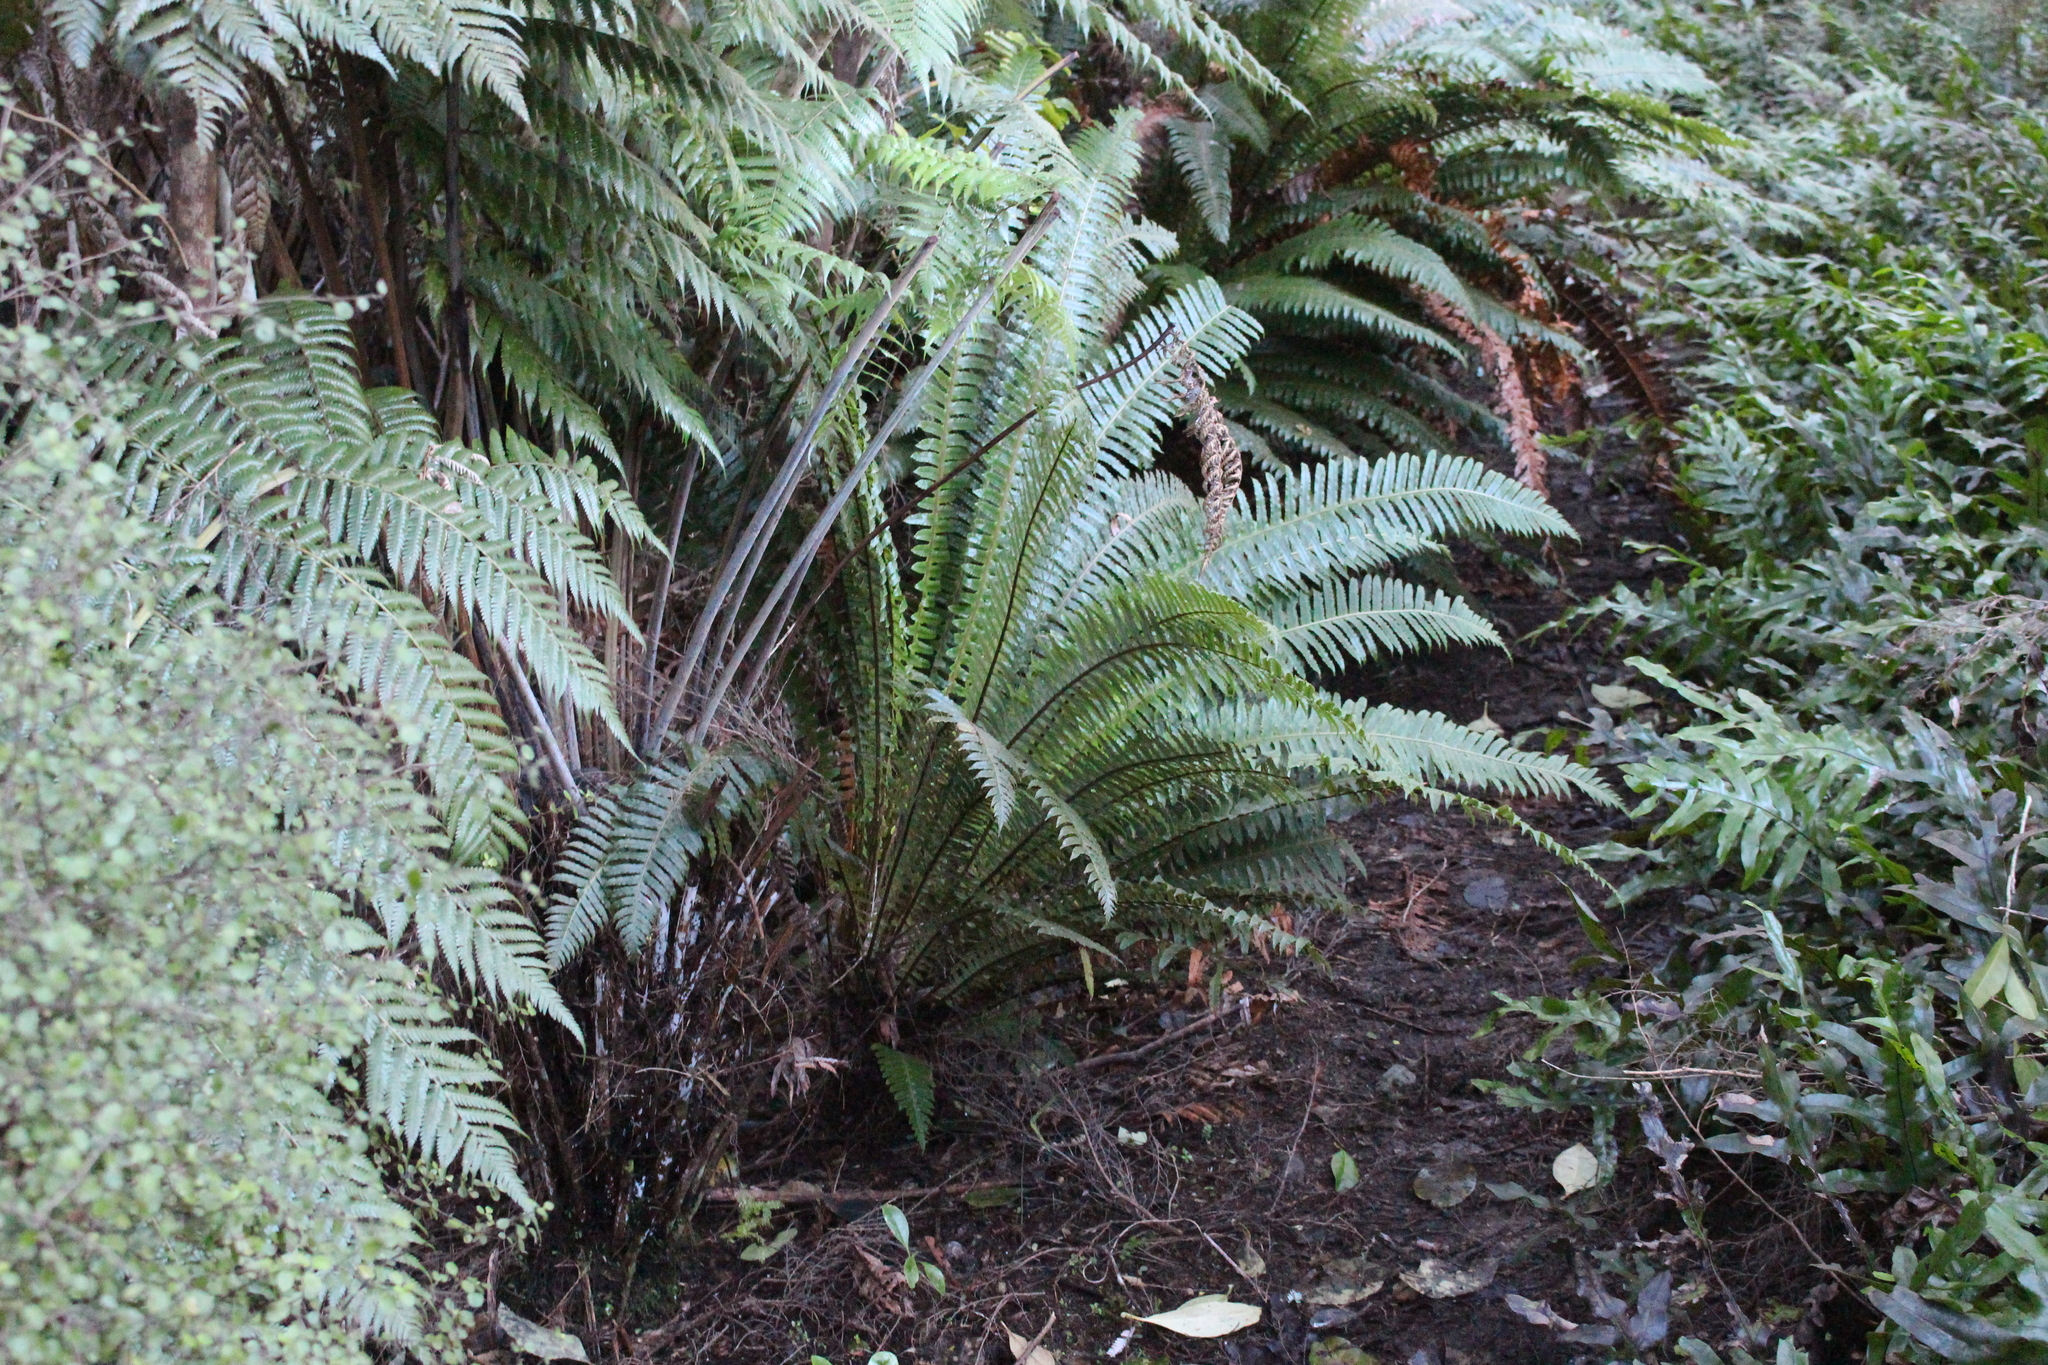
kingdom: Plantae
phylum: Tracheophyta
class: Polypodiopsida
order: Polypodiales
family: Blechnaceae
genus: Lomaria
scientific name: Lomaria discolor
